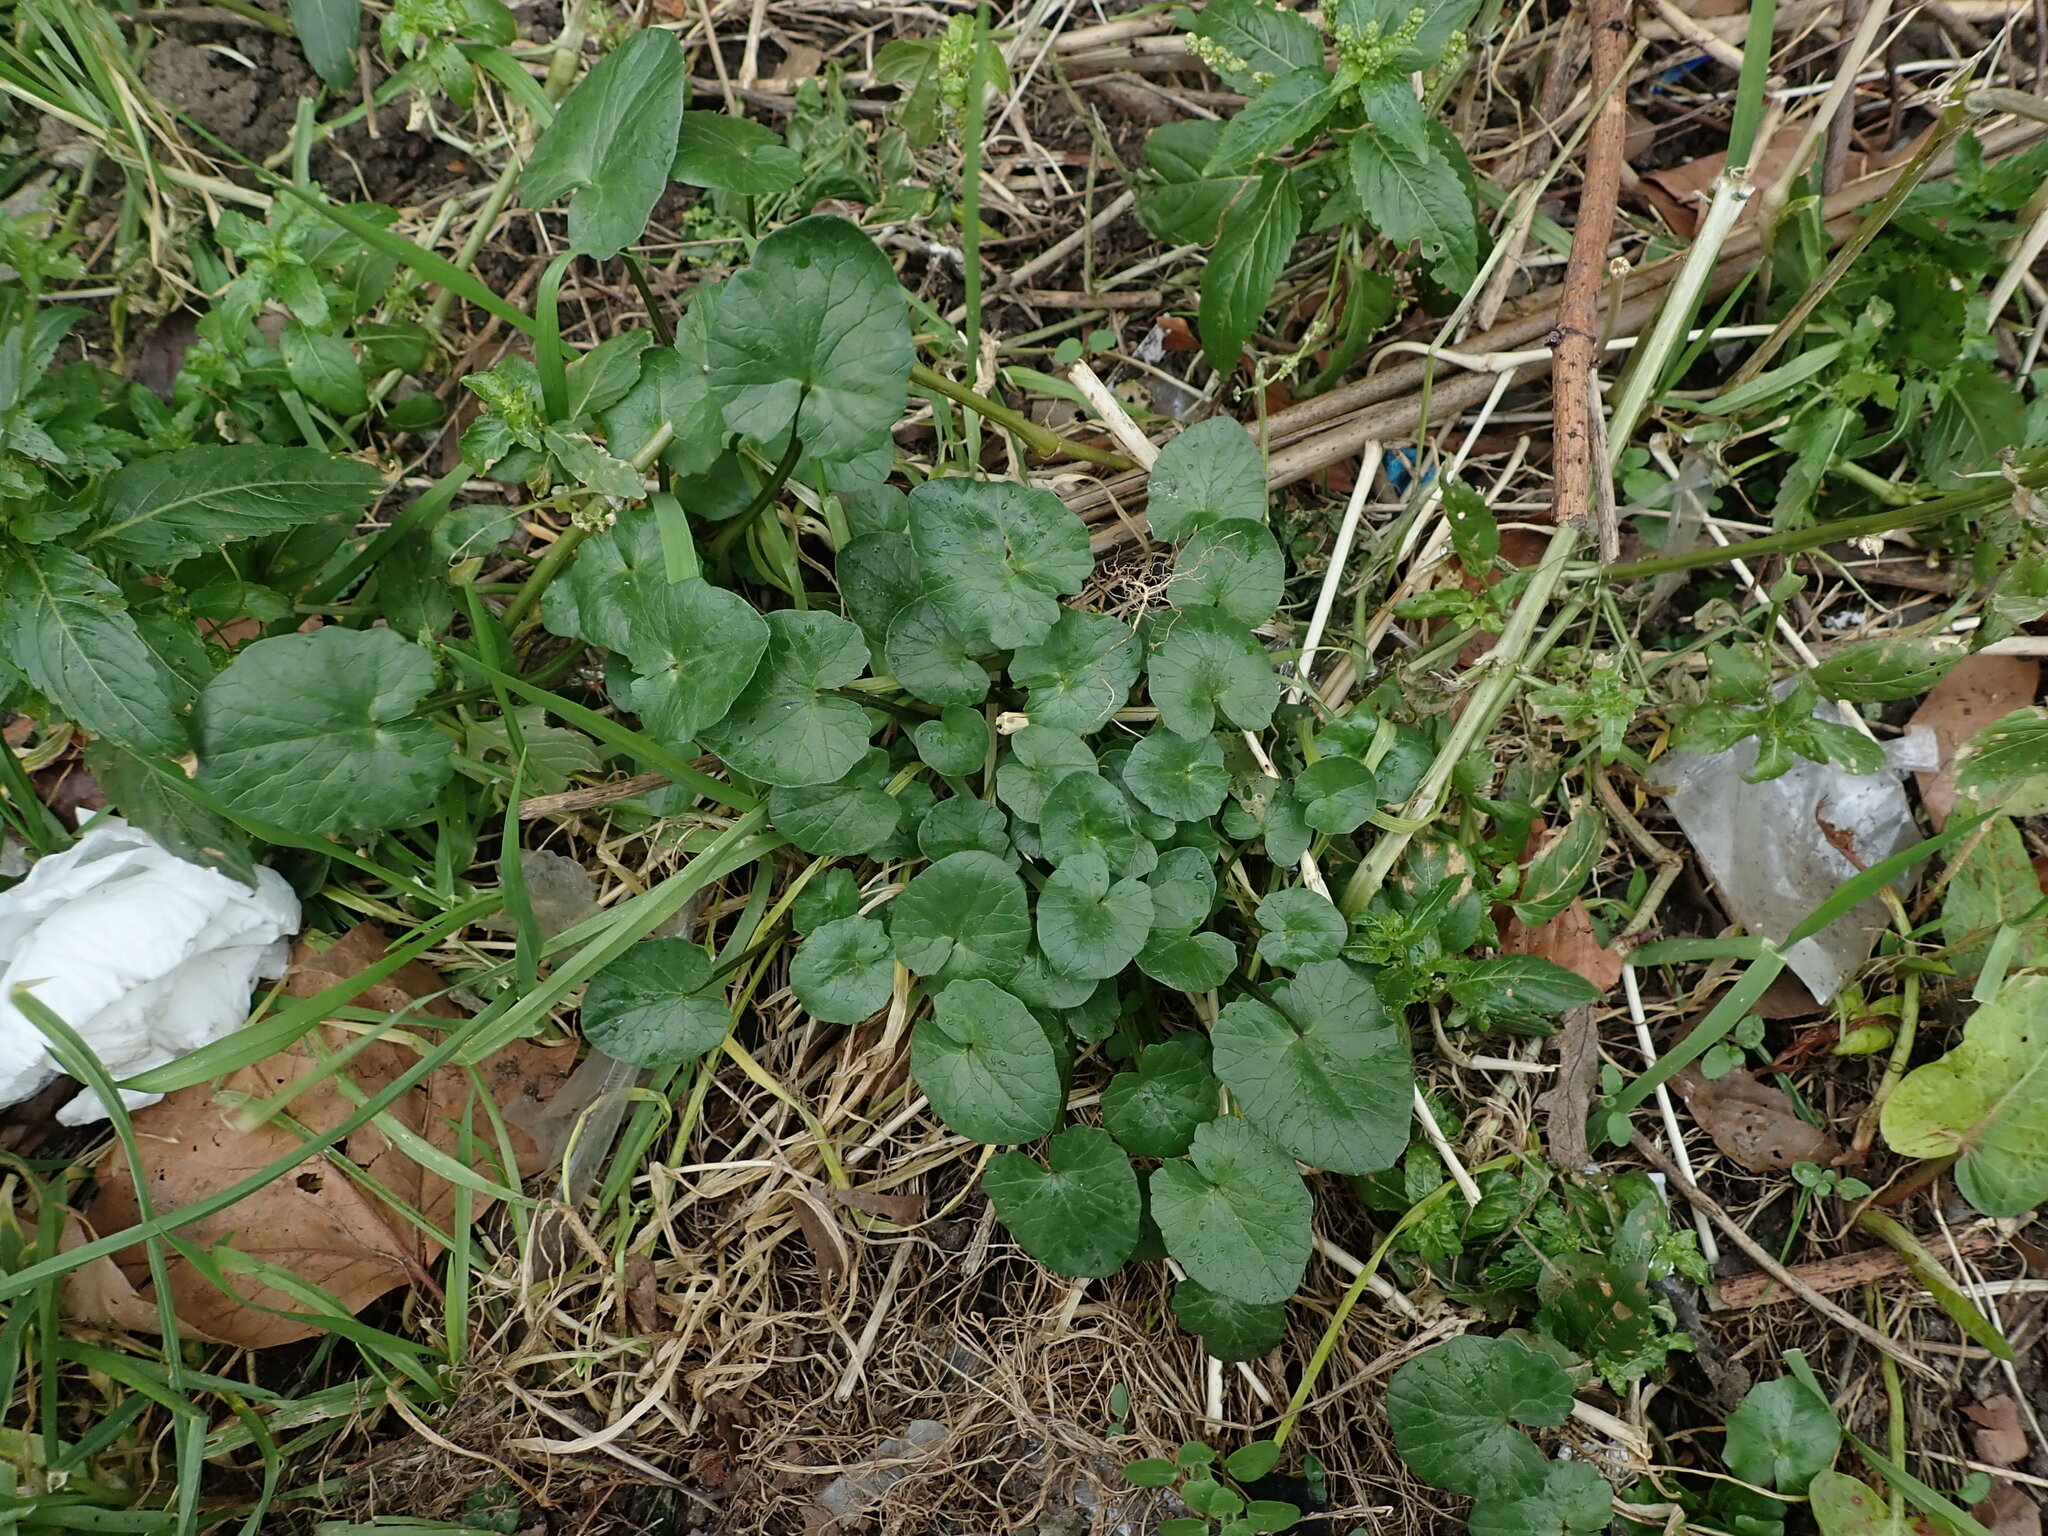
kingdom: Plantae
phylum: Tracheophyta
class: Magnoliopsida
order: Ranunculales
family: Ranunculaceae
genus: Ficaria
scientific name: Ficaria verna
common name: Lesser celandine
